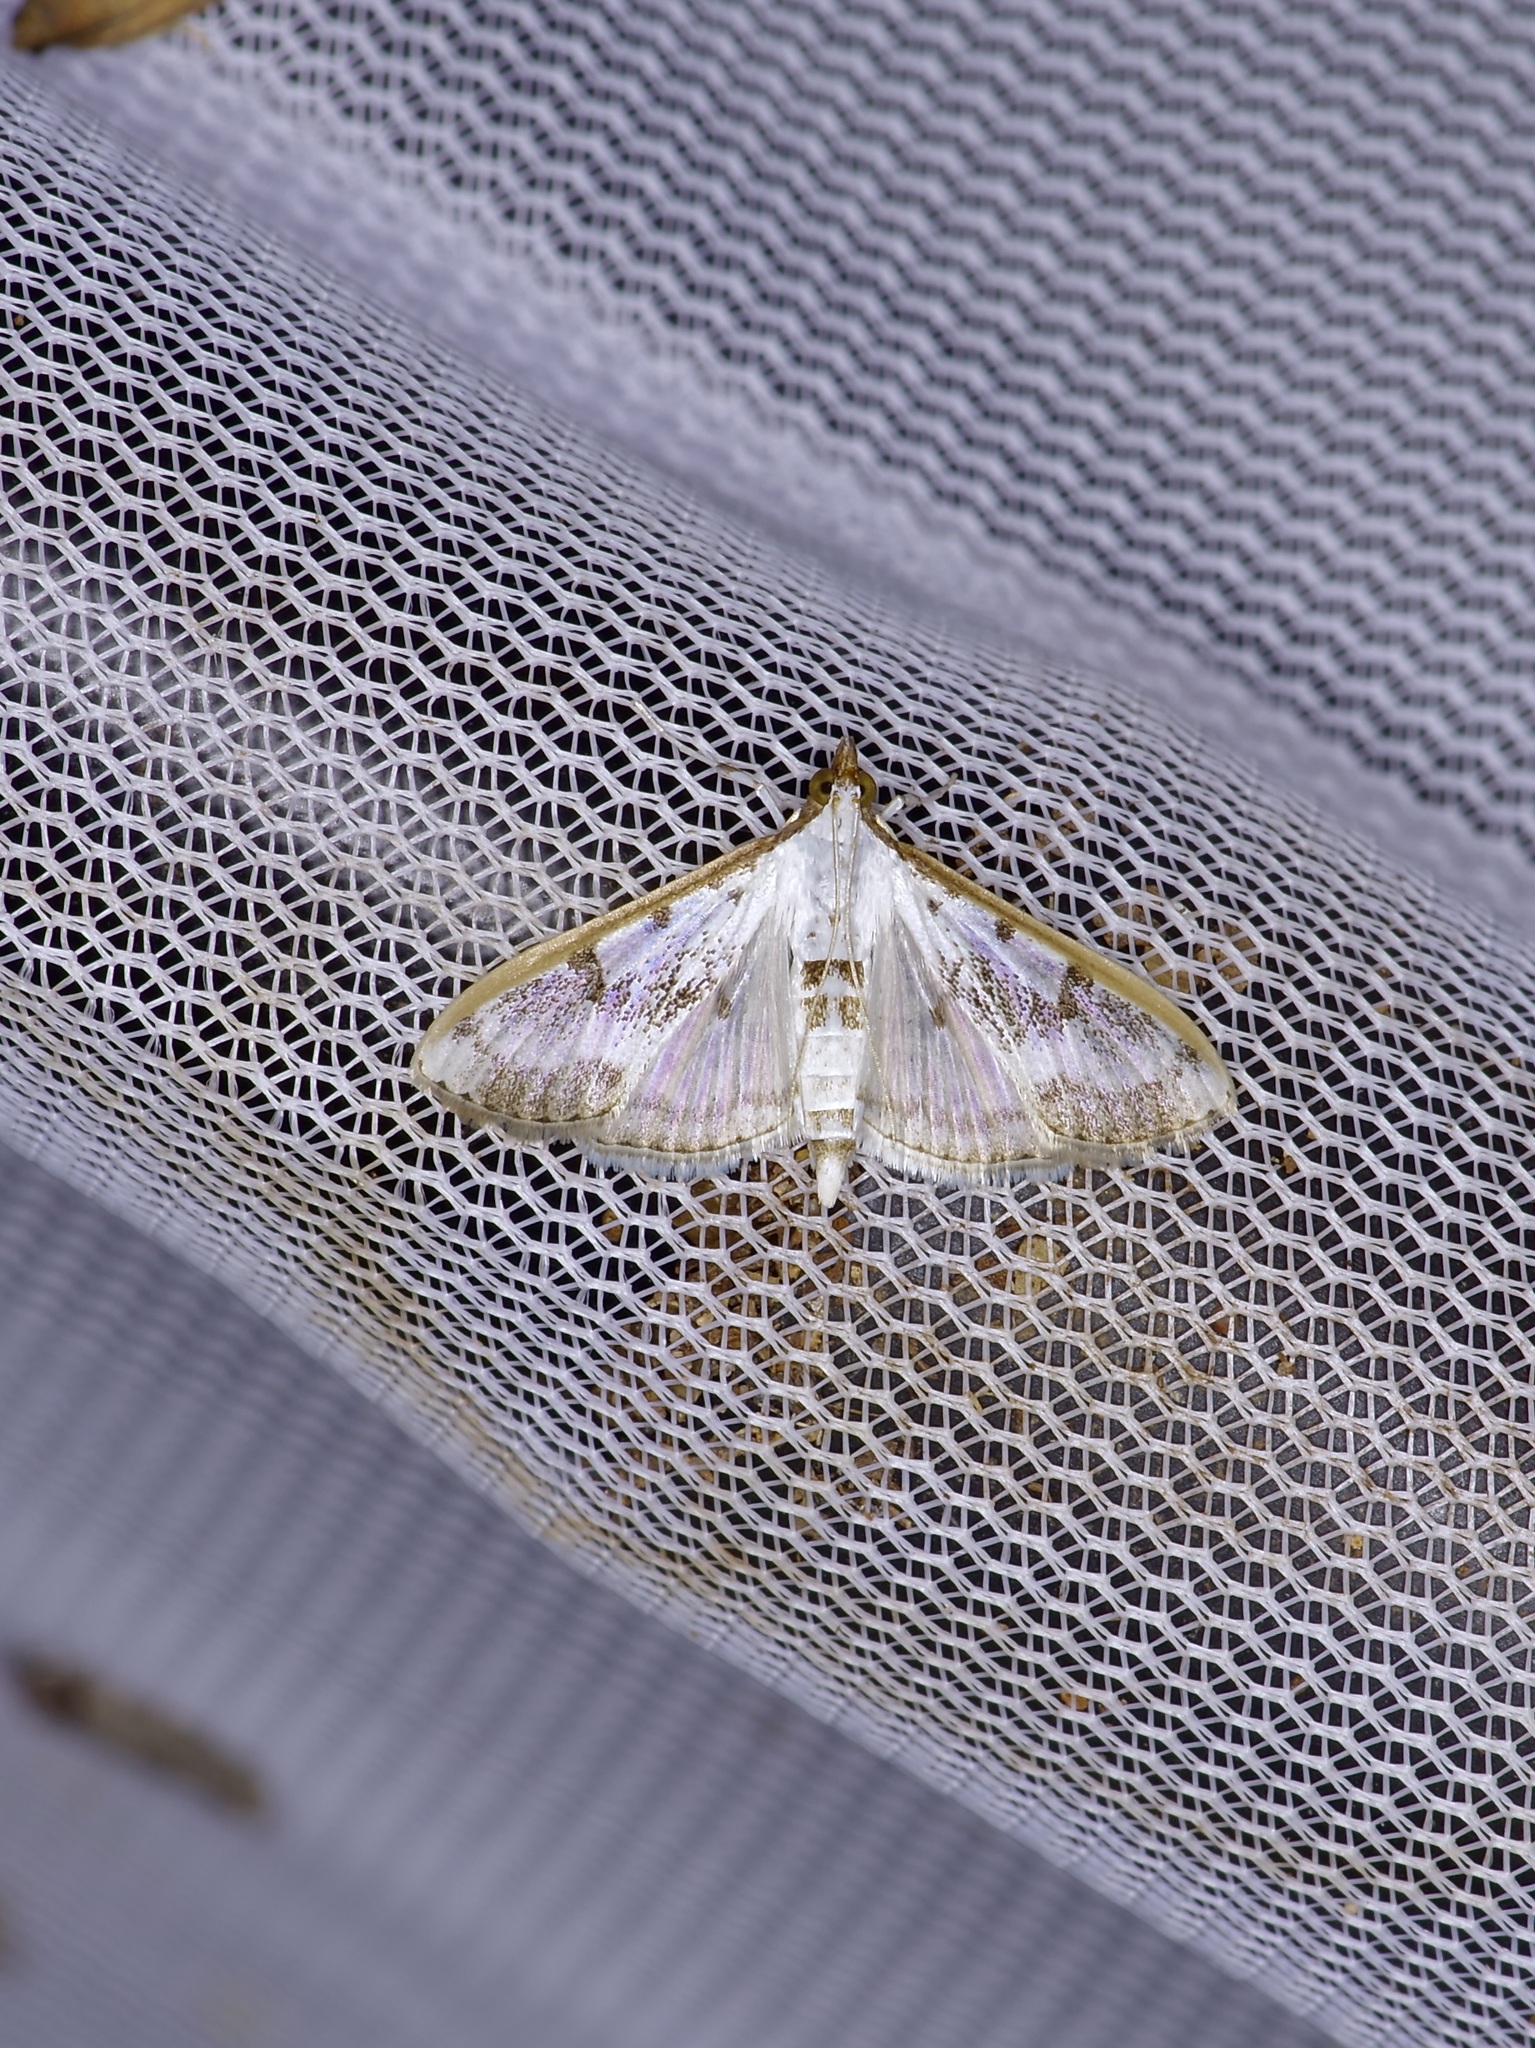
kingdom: Animalia
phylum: Arthropoda
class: Insecta
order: Lepidoptera
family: Crambidae
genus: Palpita
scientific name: Palpita gracilalis
